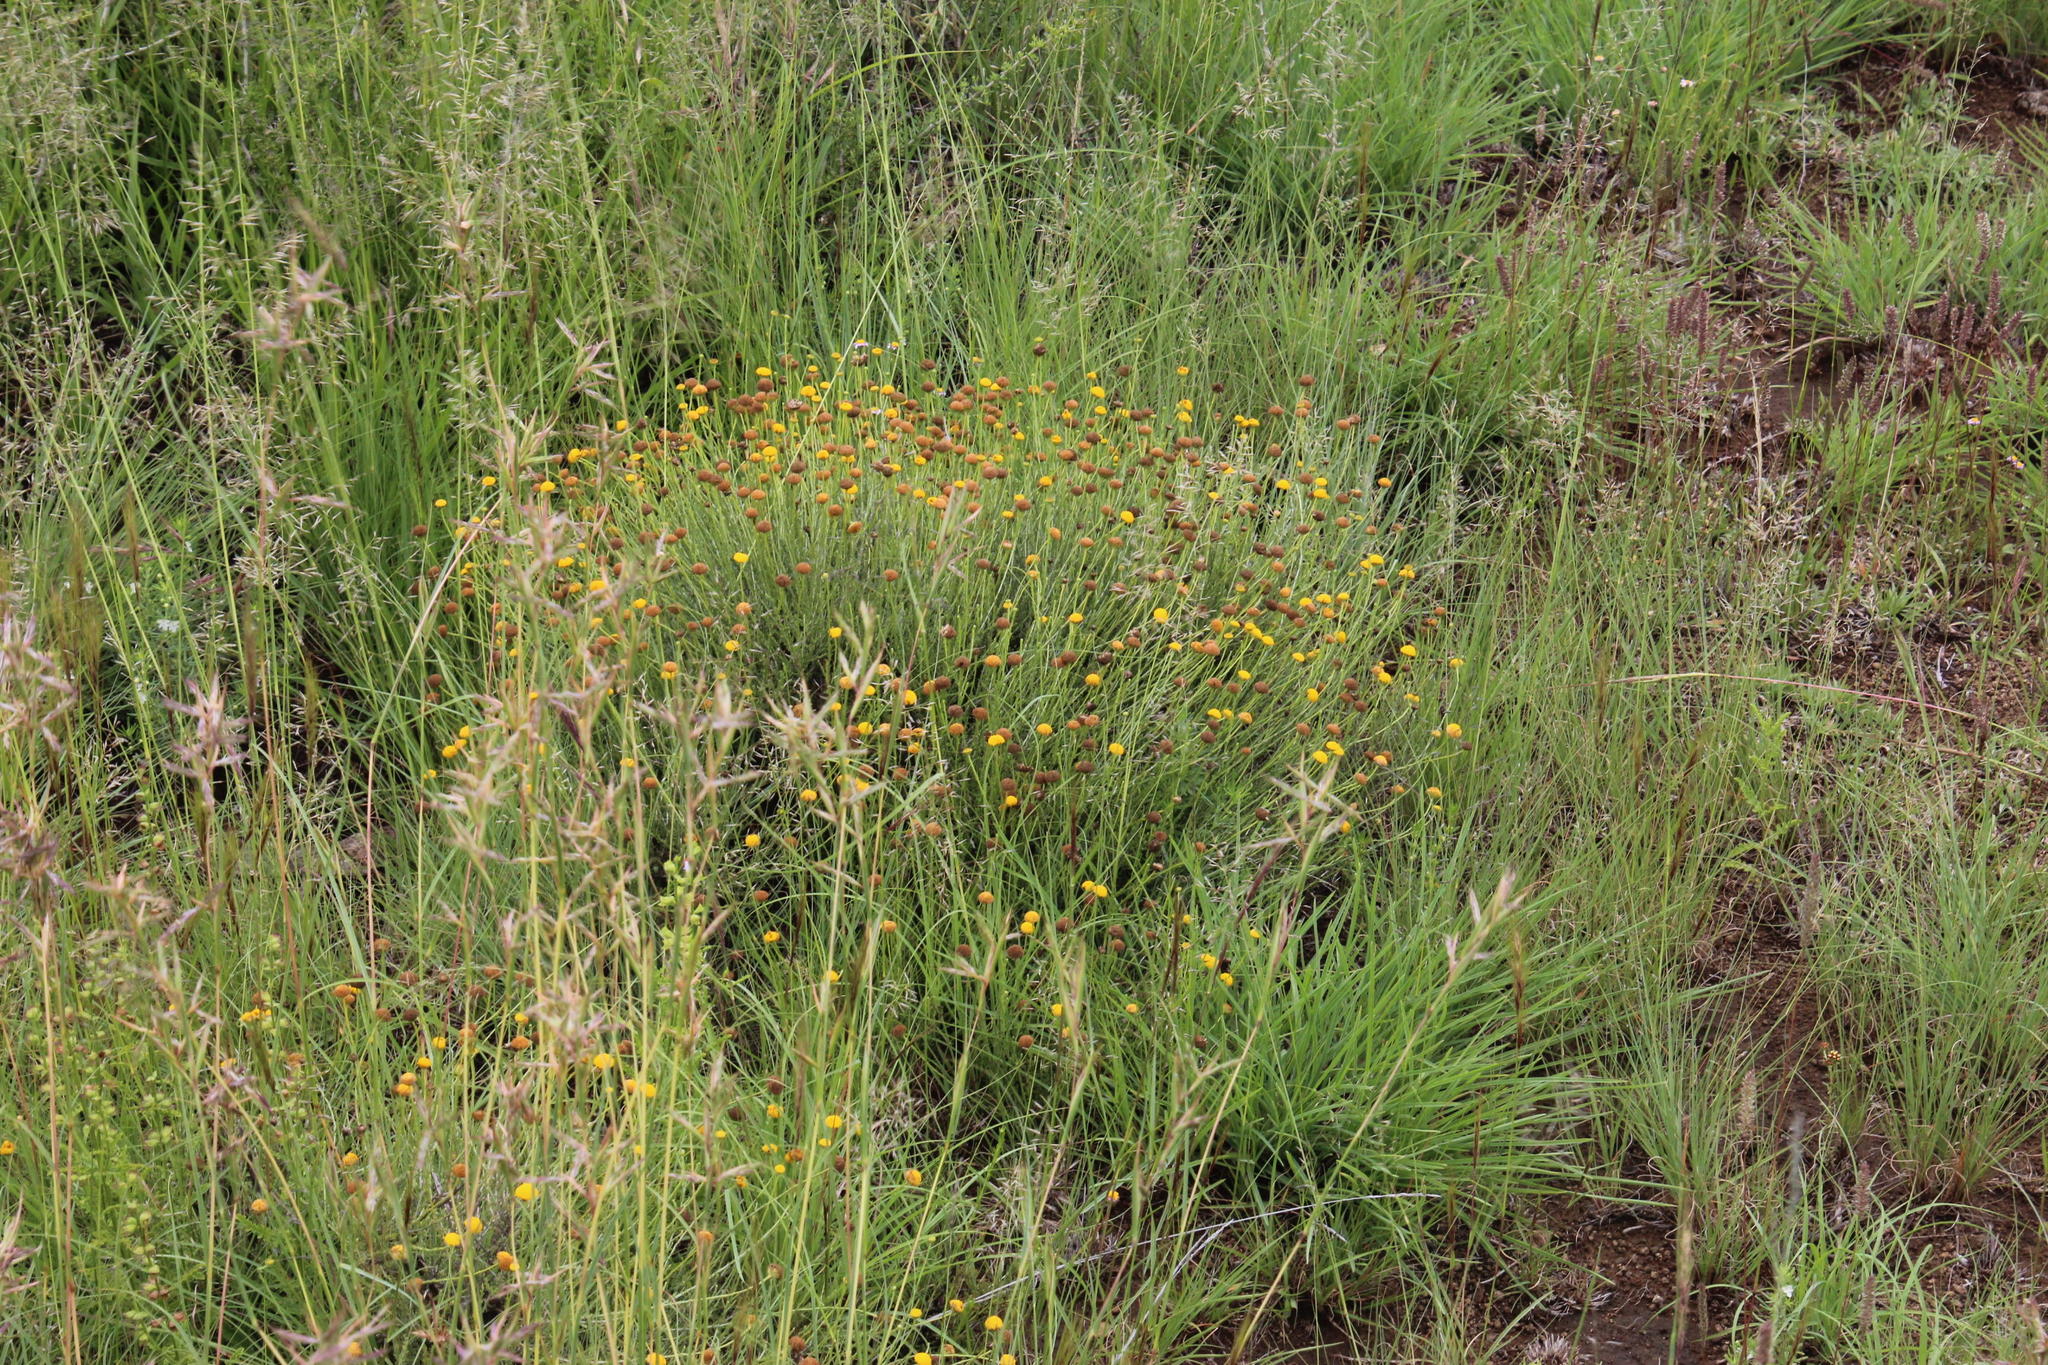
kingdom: Plantae
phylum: Tracheophyta
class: Magnoliopsida
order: Asterales
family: Asteraceae
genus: Pentzia
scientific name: Pentzia globosa
